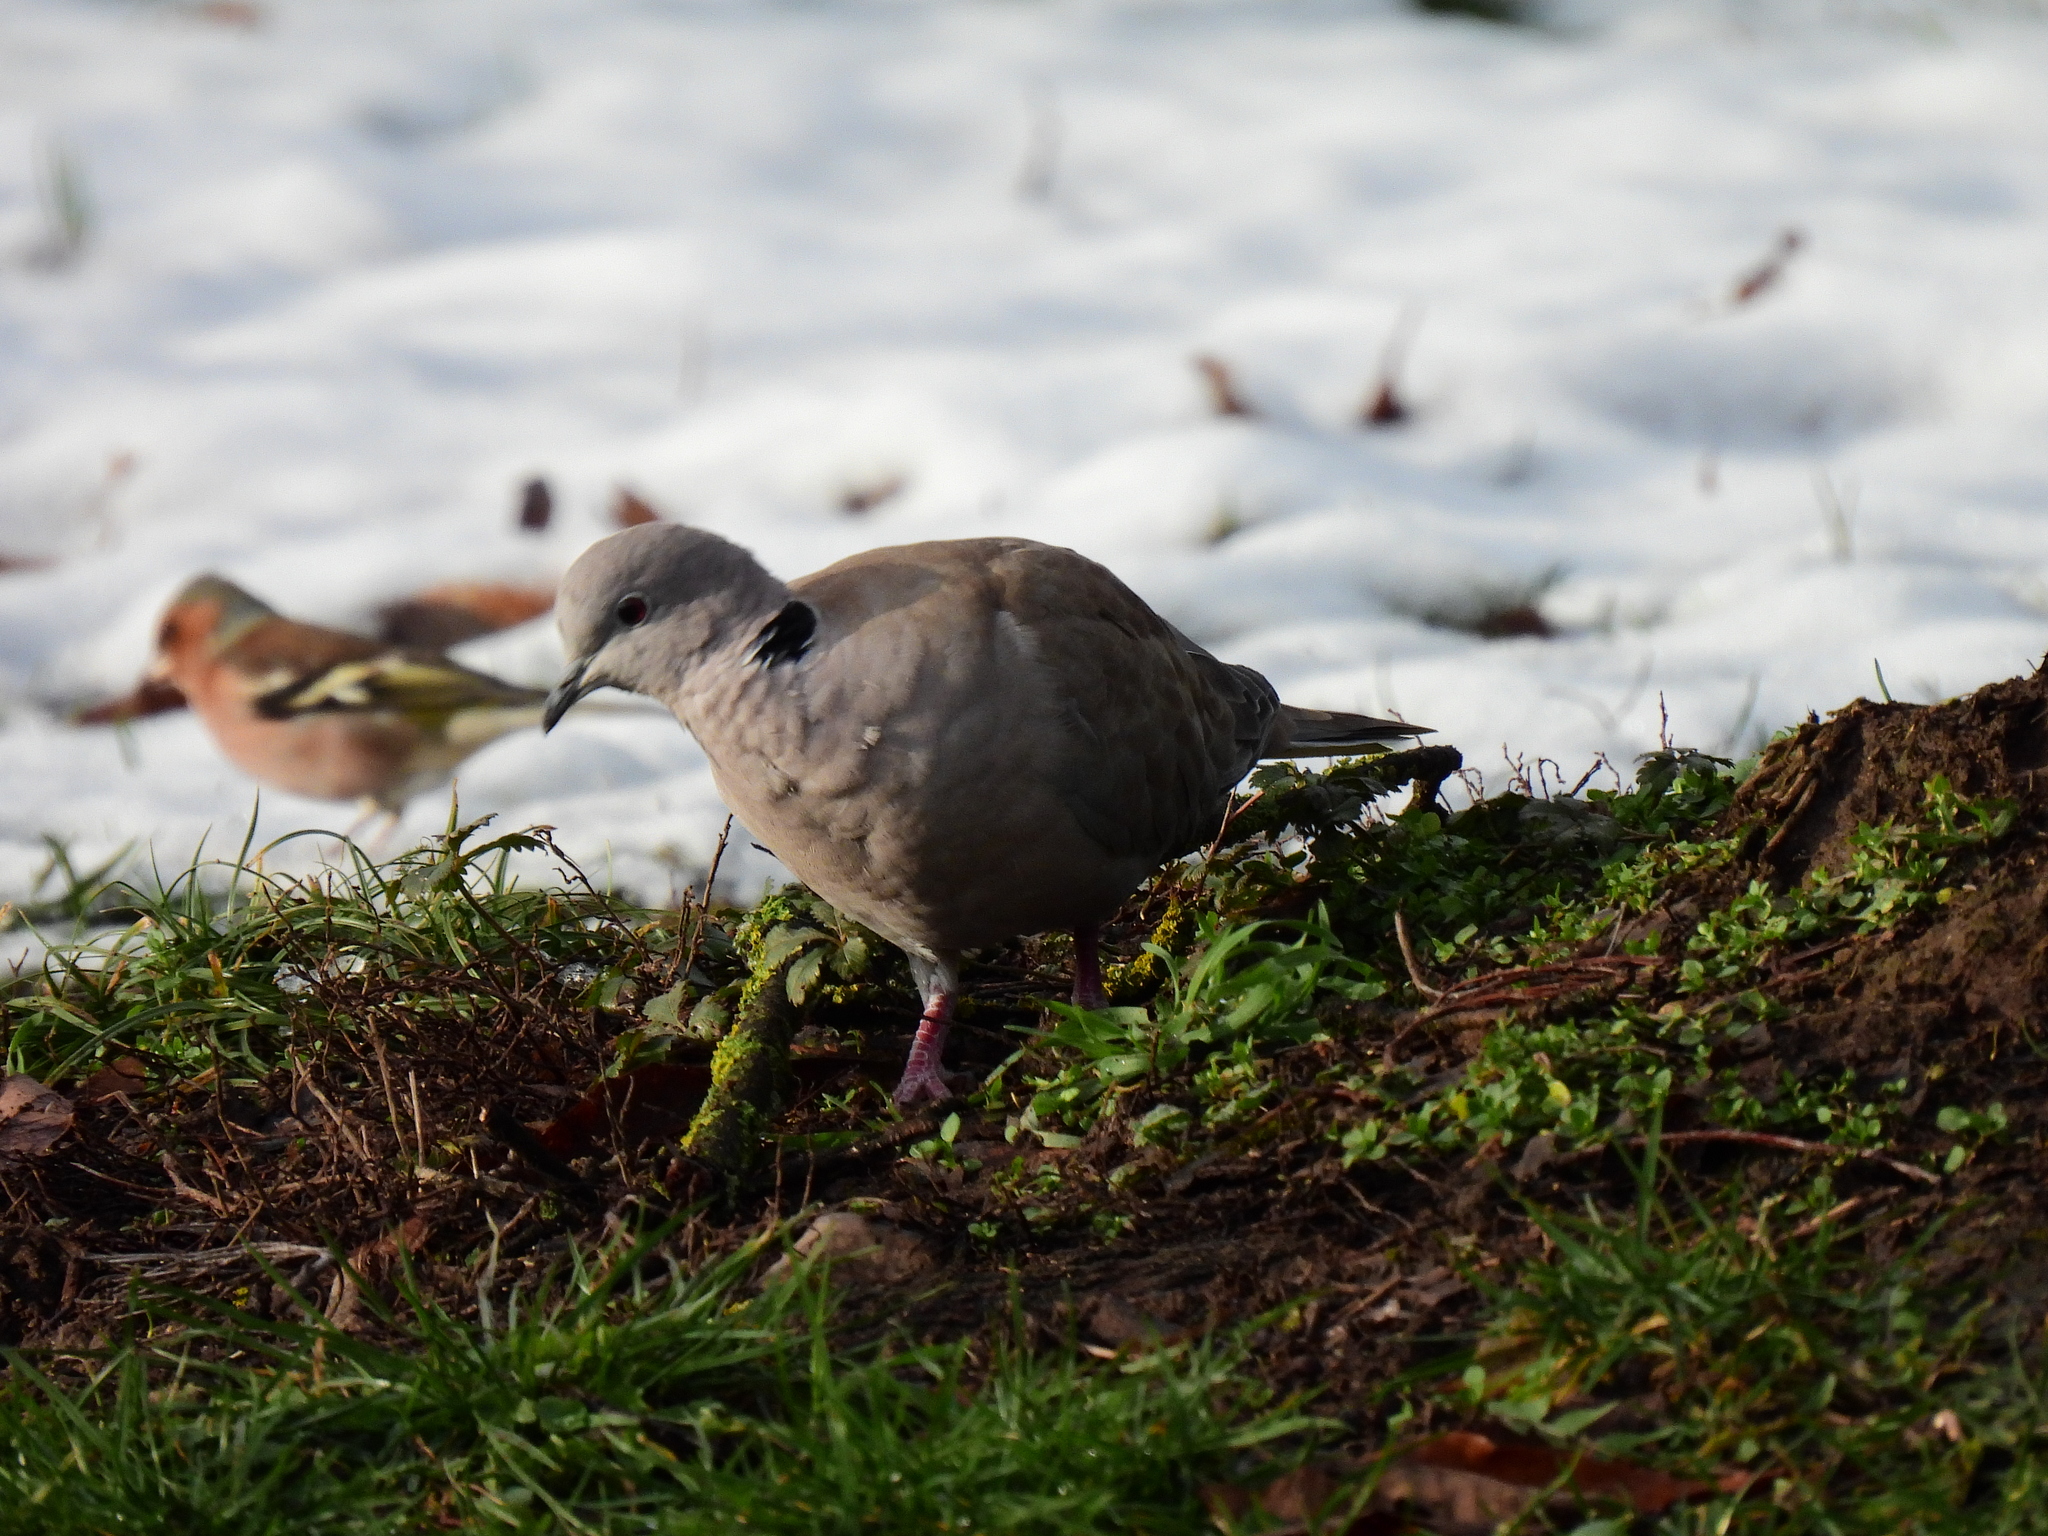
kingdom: Animalia
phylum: Chordata
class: Aves
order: Columbiformes
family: Columbidae
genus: Streptopelia
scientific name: Streptopelia decaocto
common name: Eurasian collared dove
